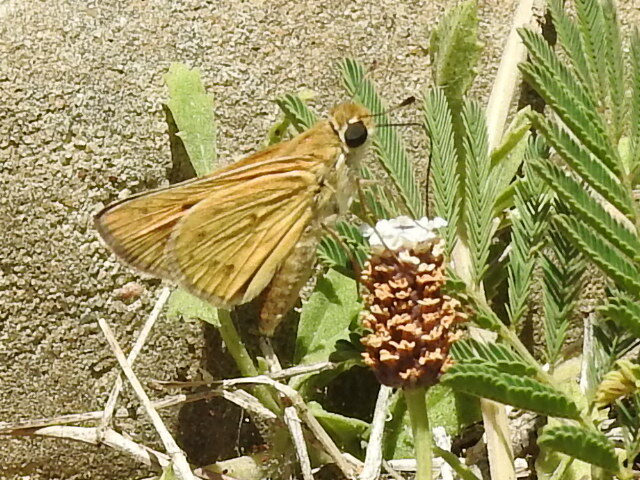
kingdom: Animalia
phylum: Arthropoda
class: Insecta
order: Lepidoptera
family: Hesperiidae
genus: Hylephila
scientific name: Hylephila phyleus
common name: Fiery skipper
